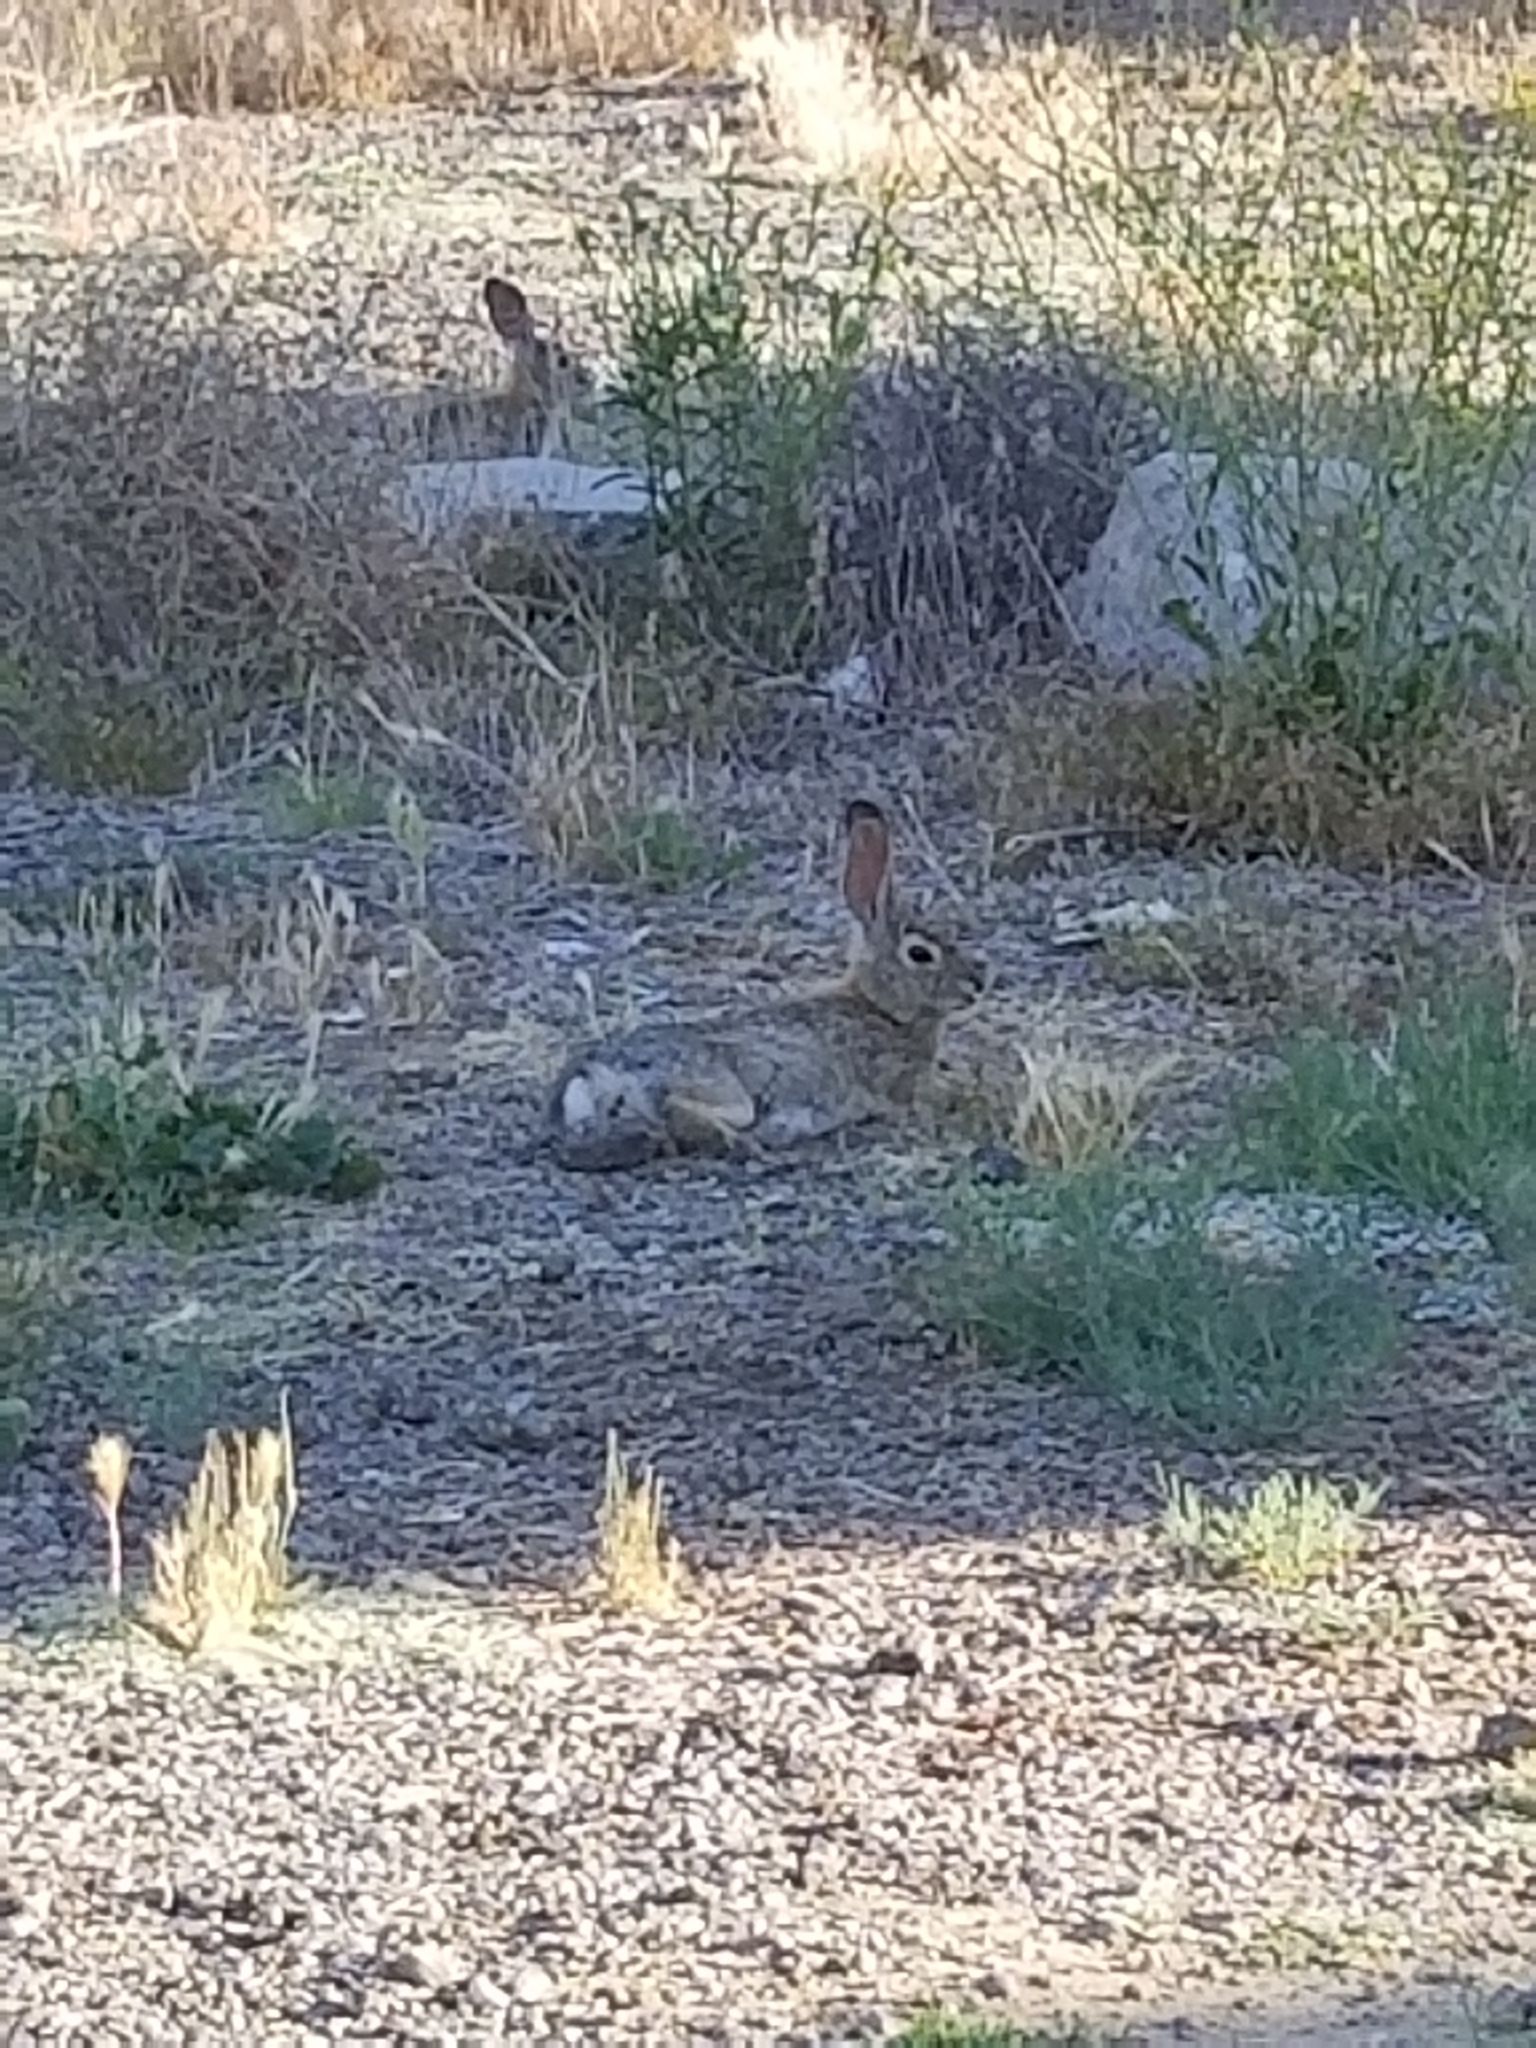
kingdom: Animalia
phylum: Chordata
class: Mammalia
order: Lagomorpha
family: Leporidae
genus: Sylvilagus
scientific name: Sylvilagus audubonii
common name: Desert cottontail
